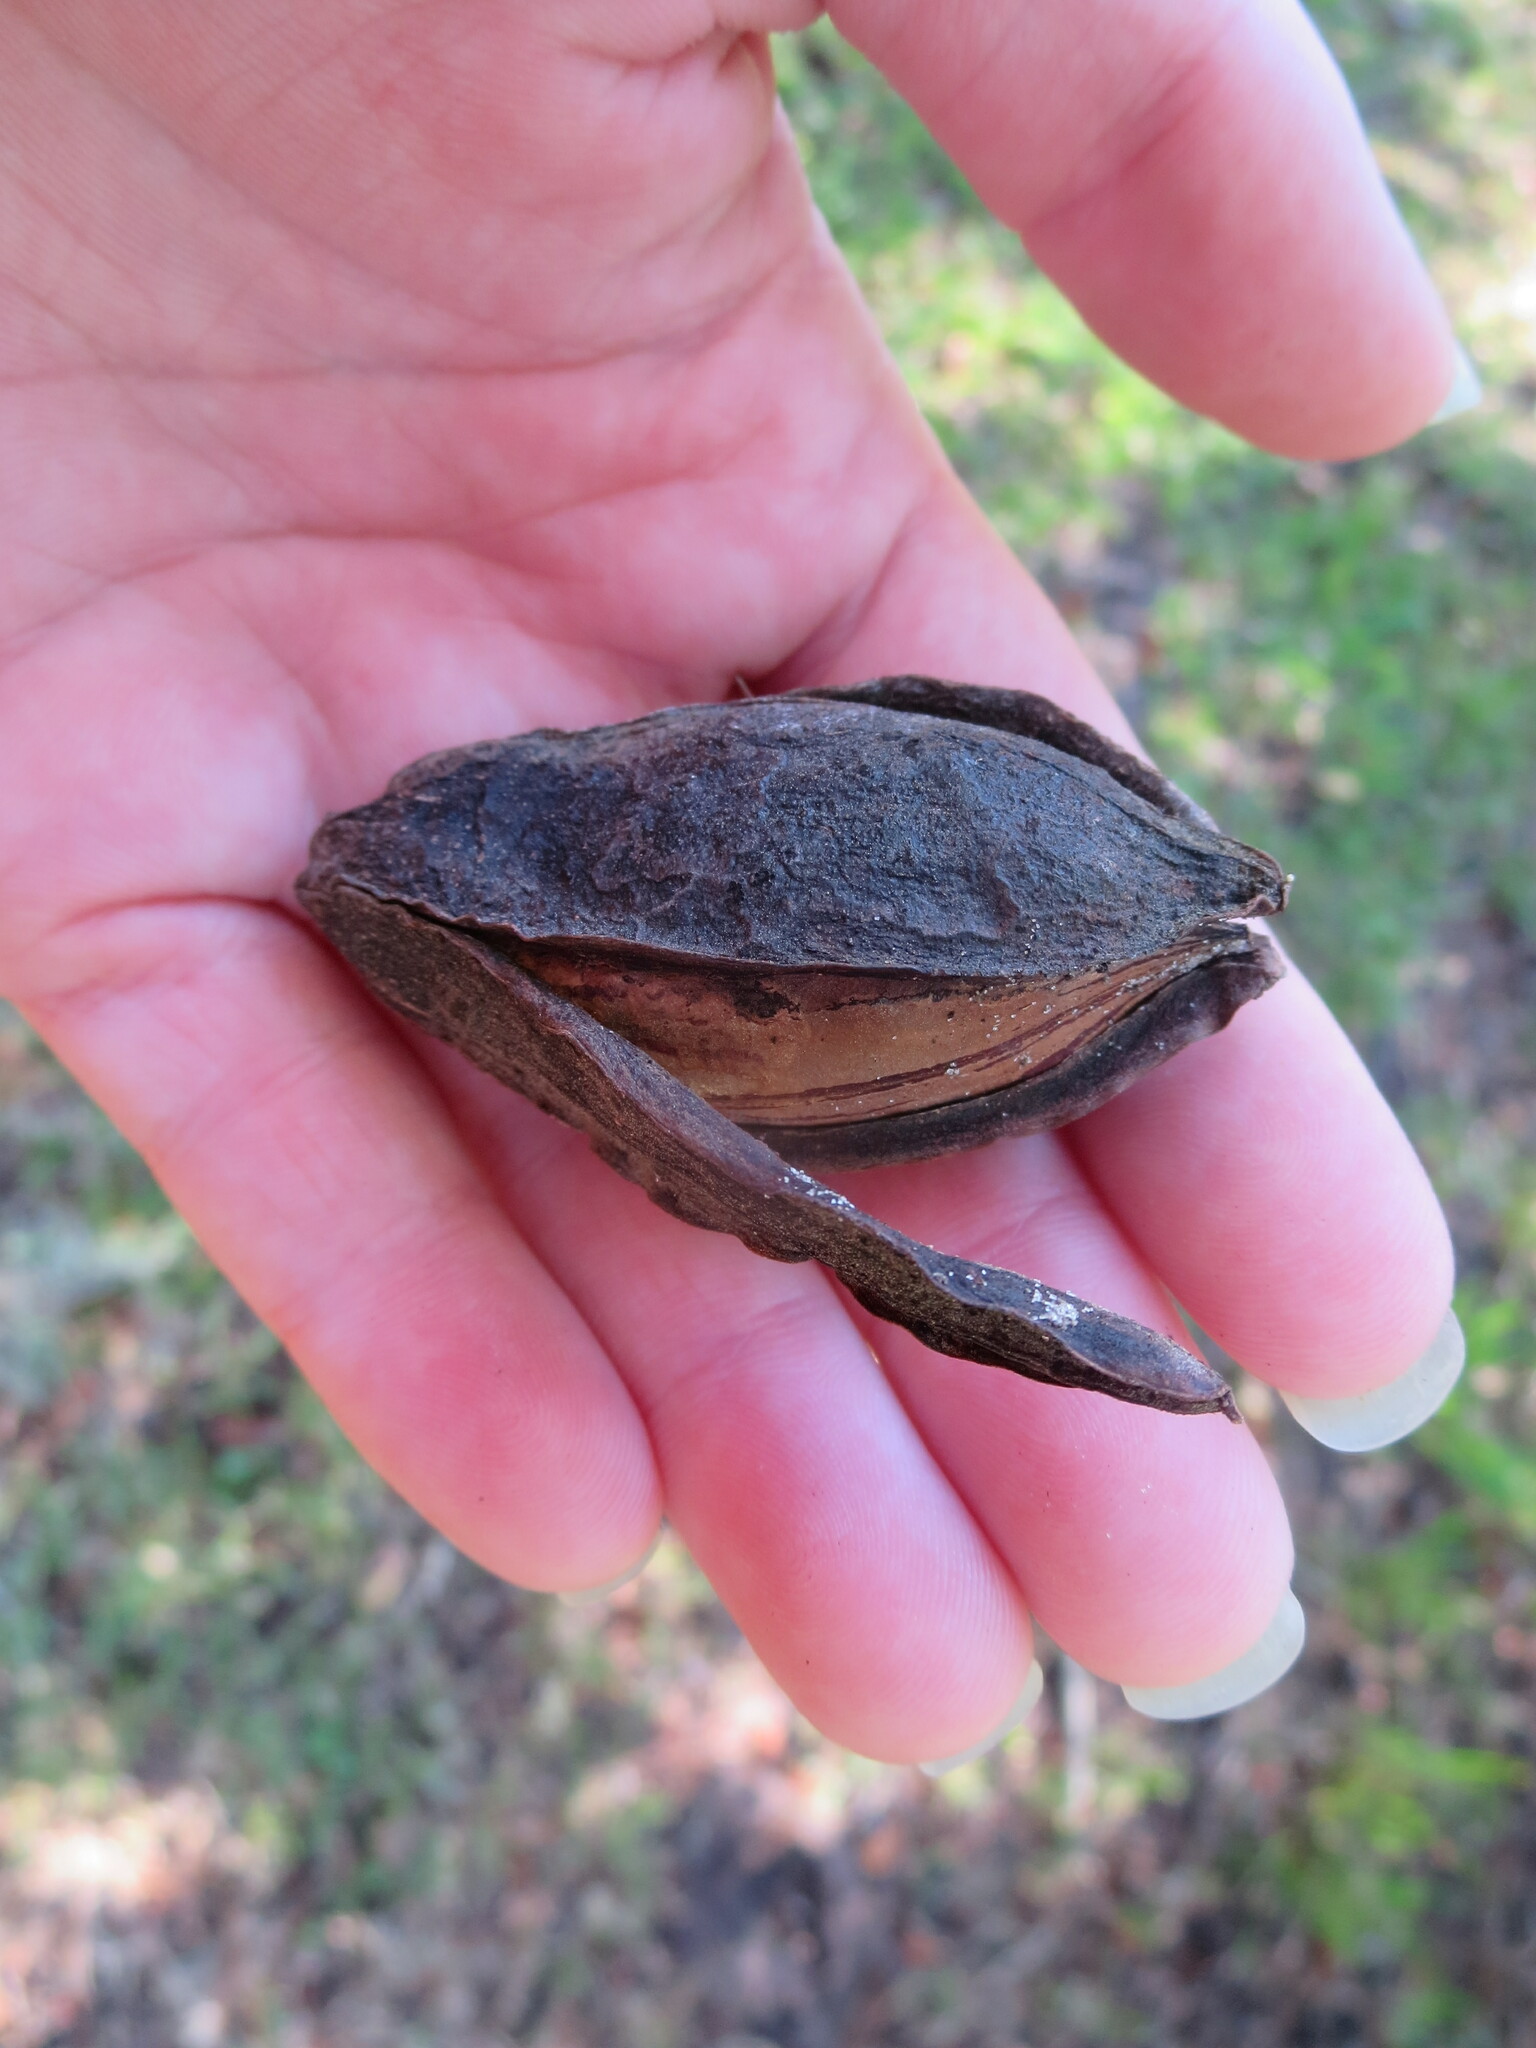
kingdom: Plantae
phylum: Tracheophyta
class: Magnoliopsida
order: Fagales
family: Juglandaceae
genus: Carya
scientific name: Carya illinoinensis
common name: Pecan
